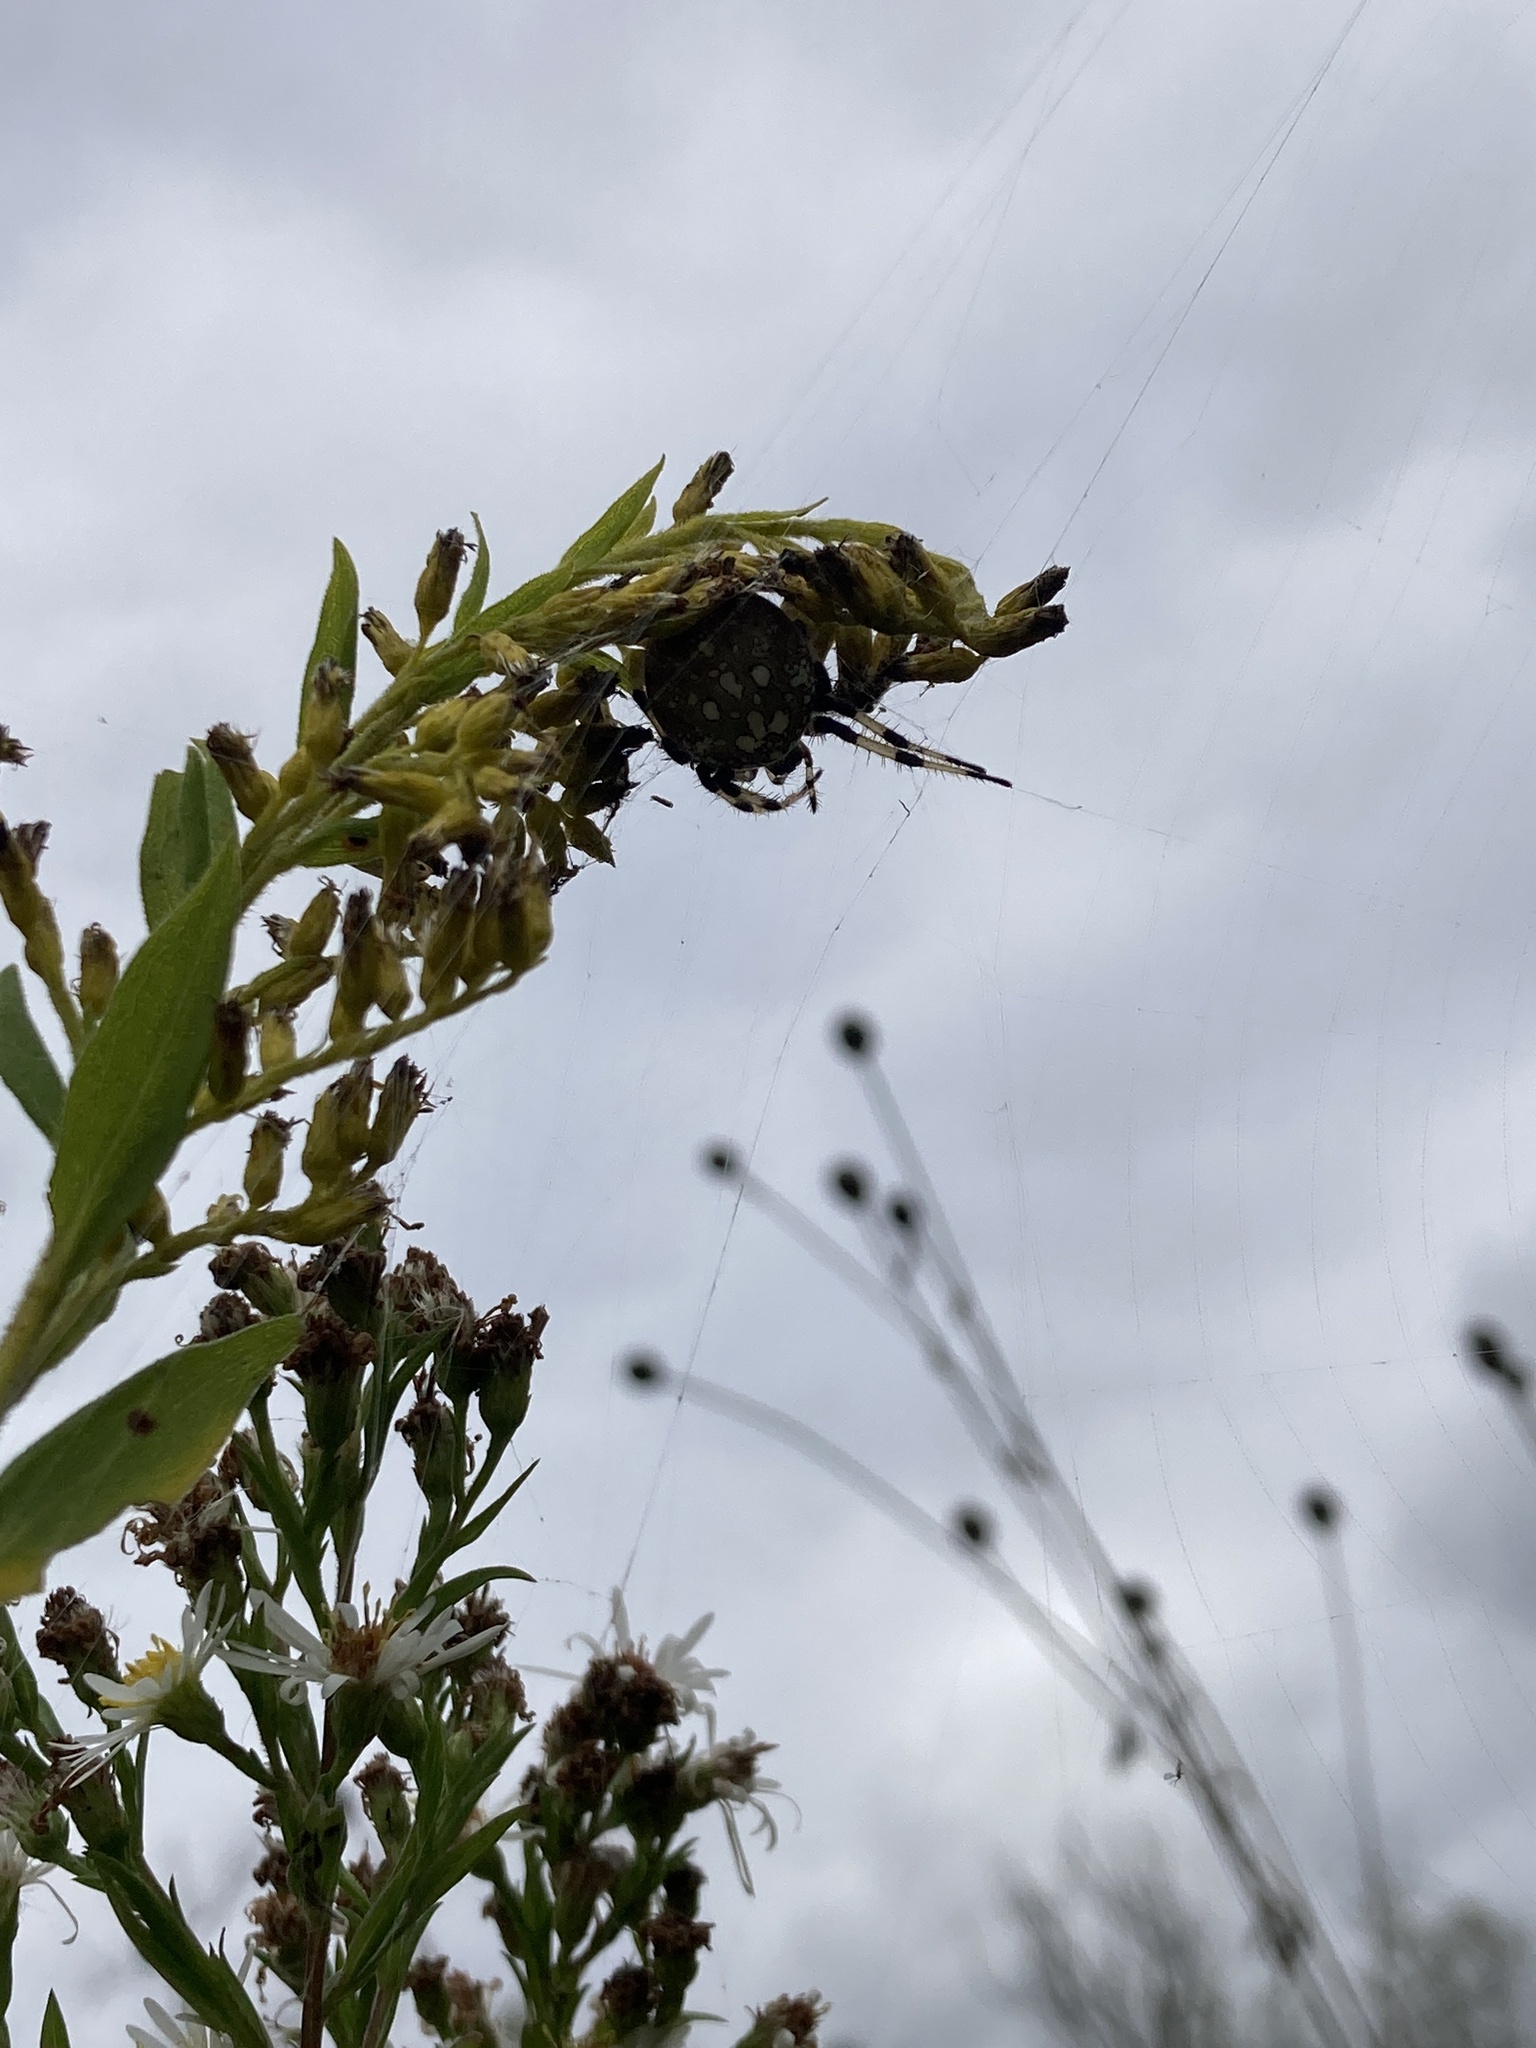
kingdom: Animalia
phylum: Arthropoda
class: Arachnida
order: Araneae
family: Araneidae
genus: Araneus
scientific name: Araneus trifolium
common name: Shamrock orbweaver
